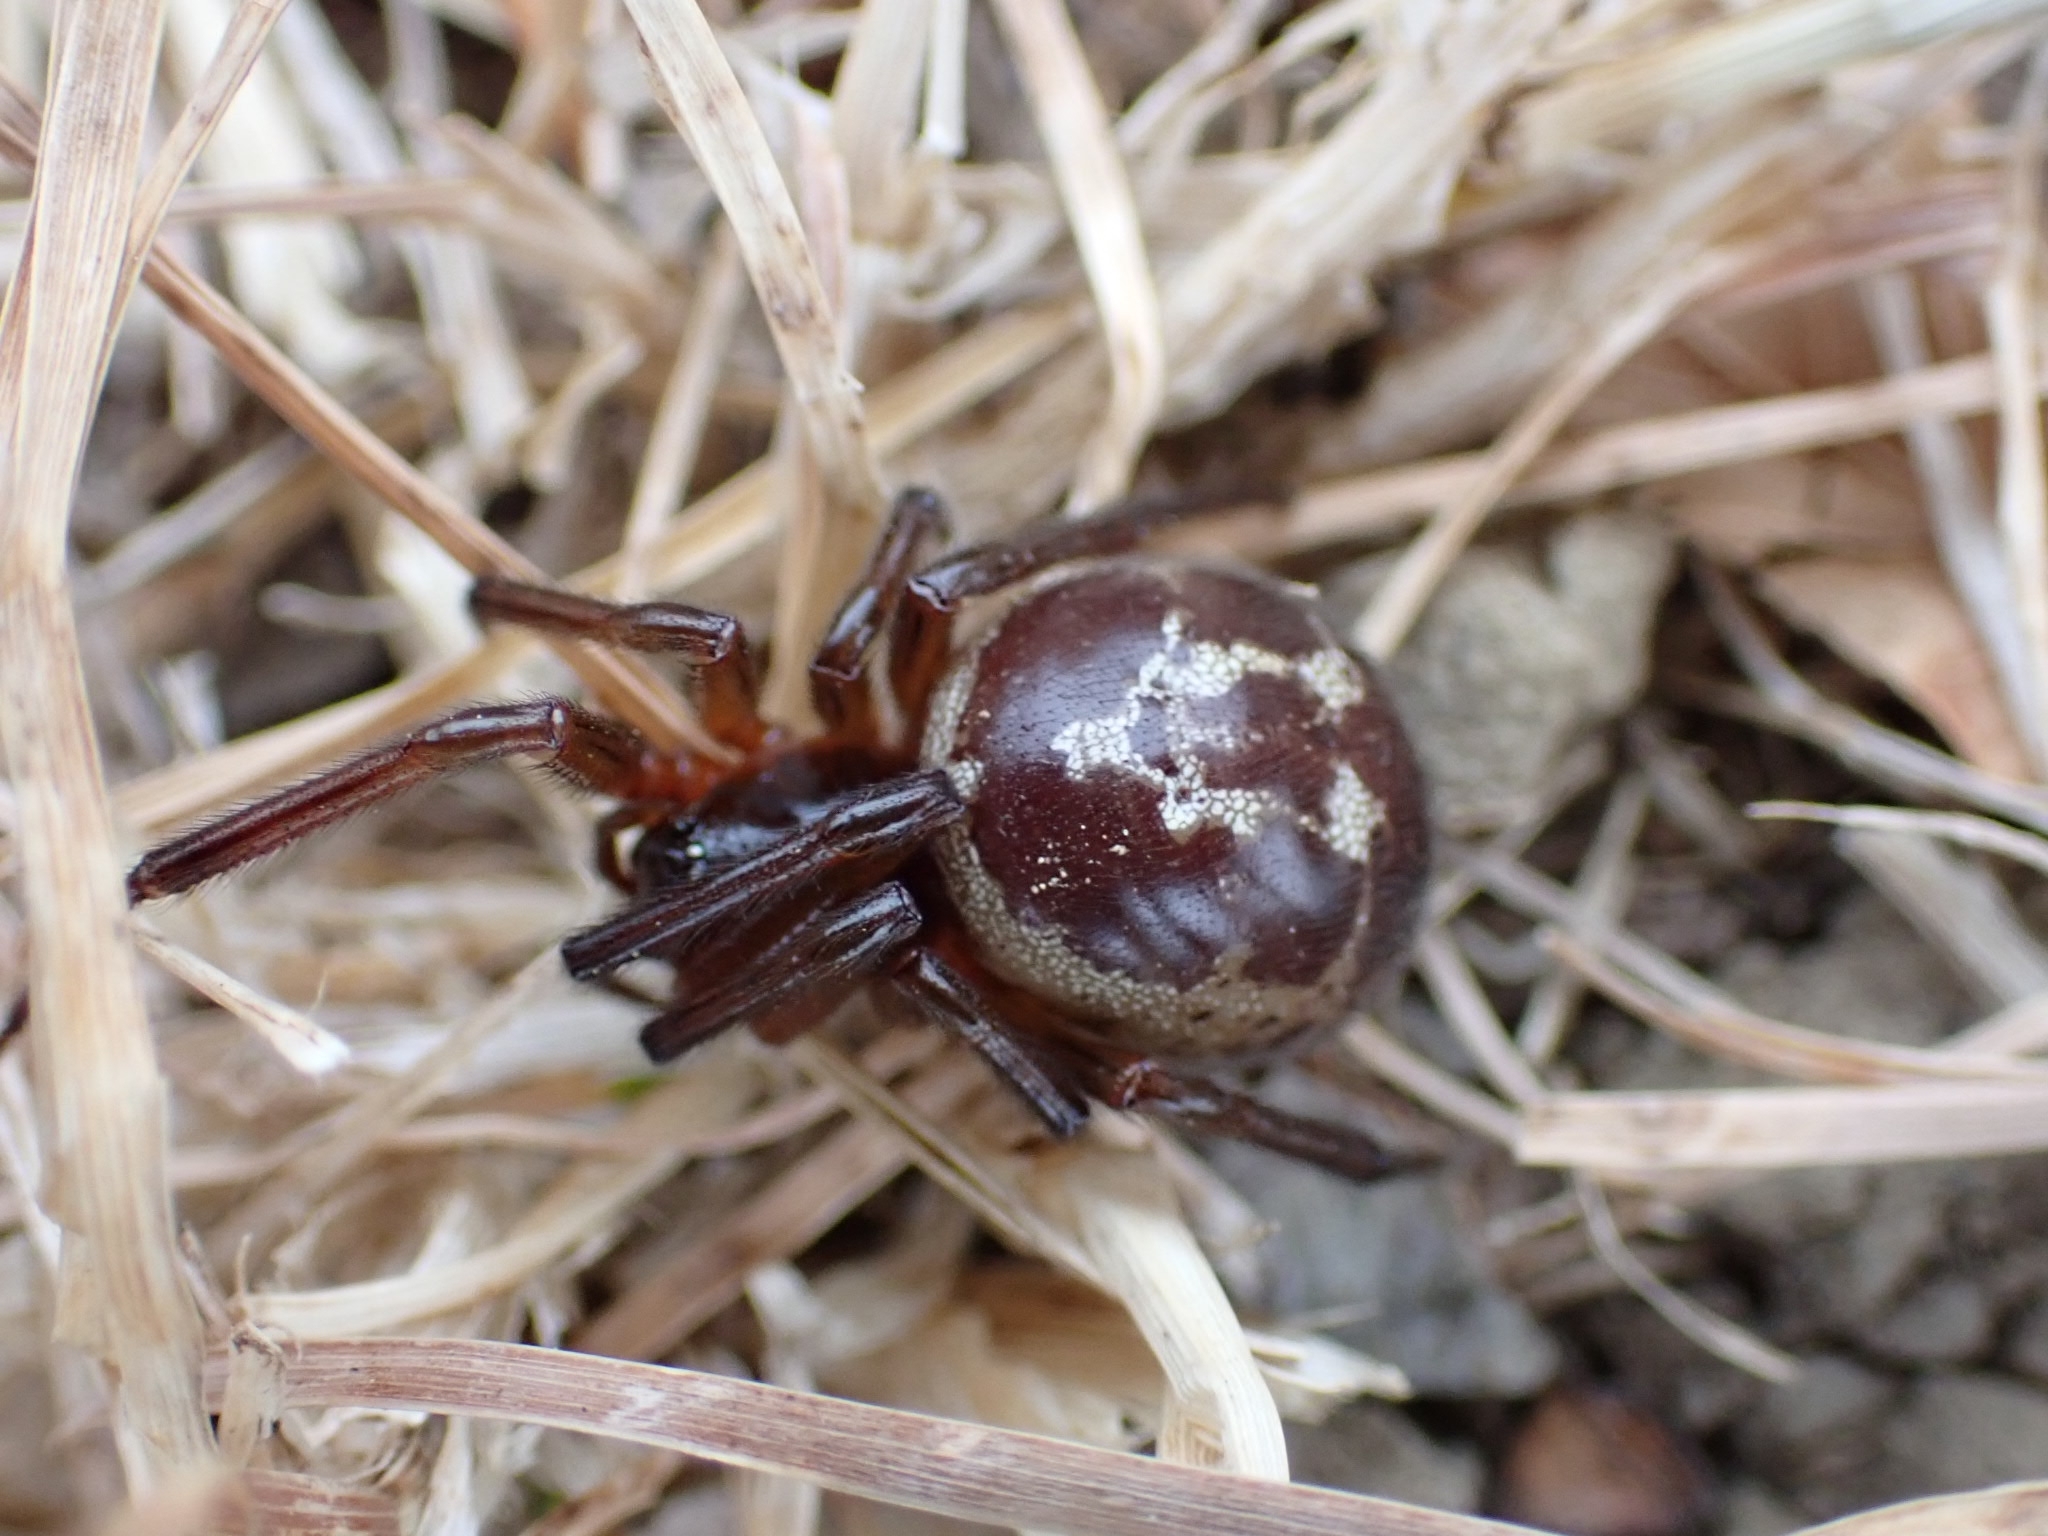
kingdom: Animalia
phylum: Arthropoda
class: Arachnida
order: Araneae
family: Theridiidae
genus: Steatoda
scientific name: Steatoda nobilis
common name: Cobweb weaver
